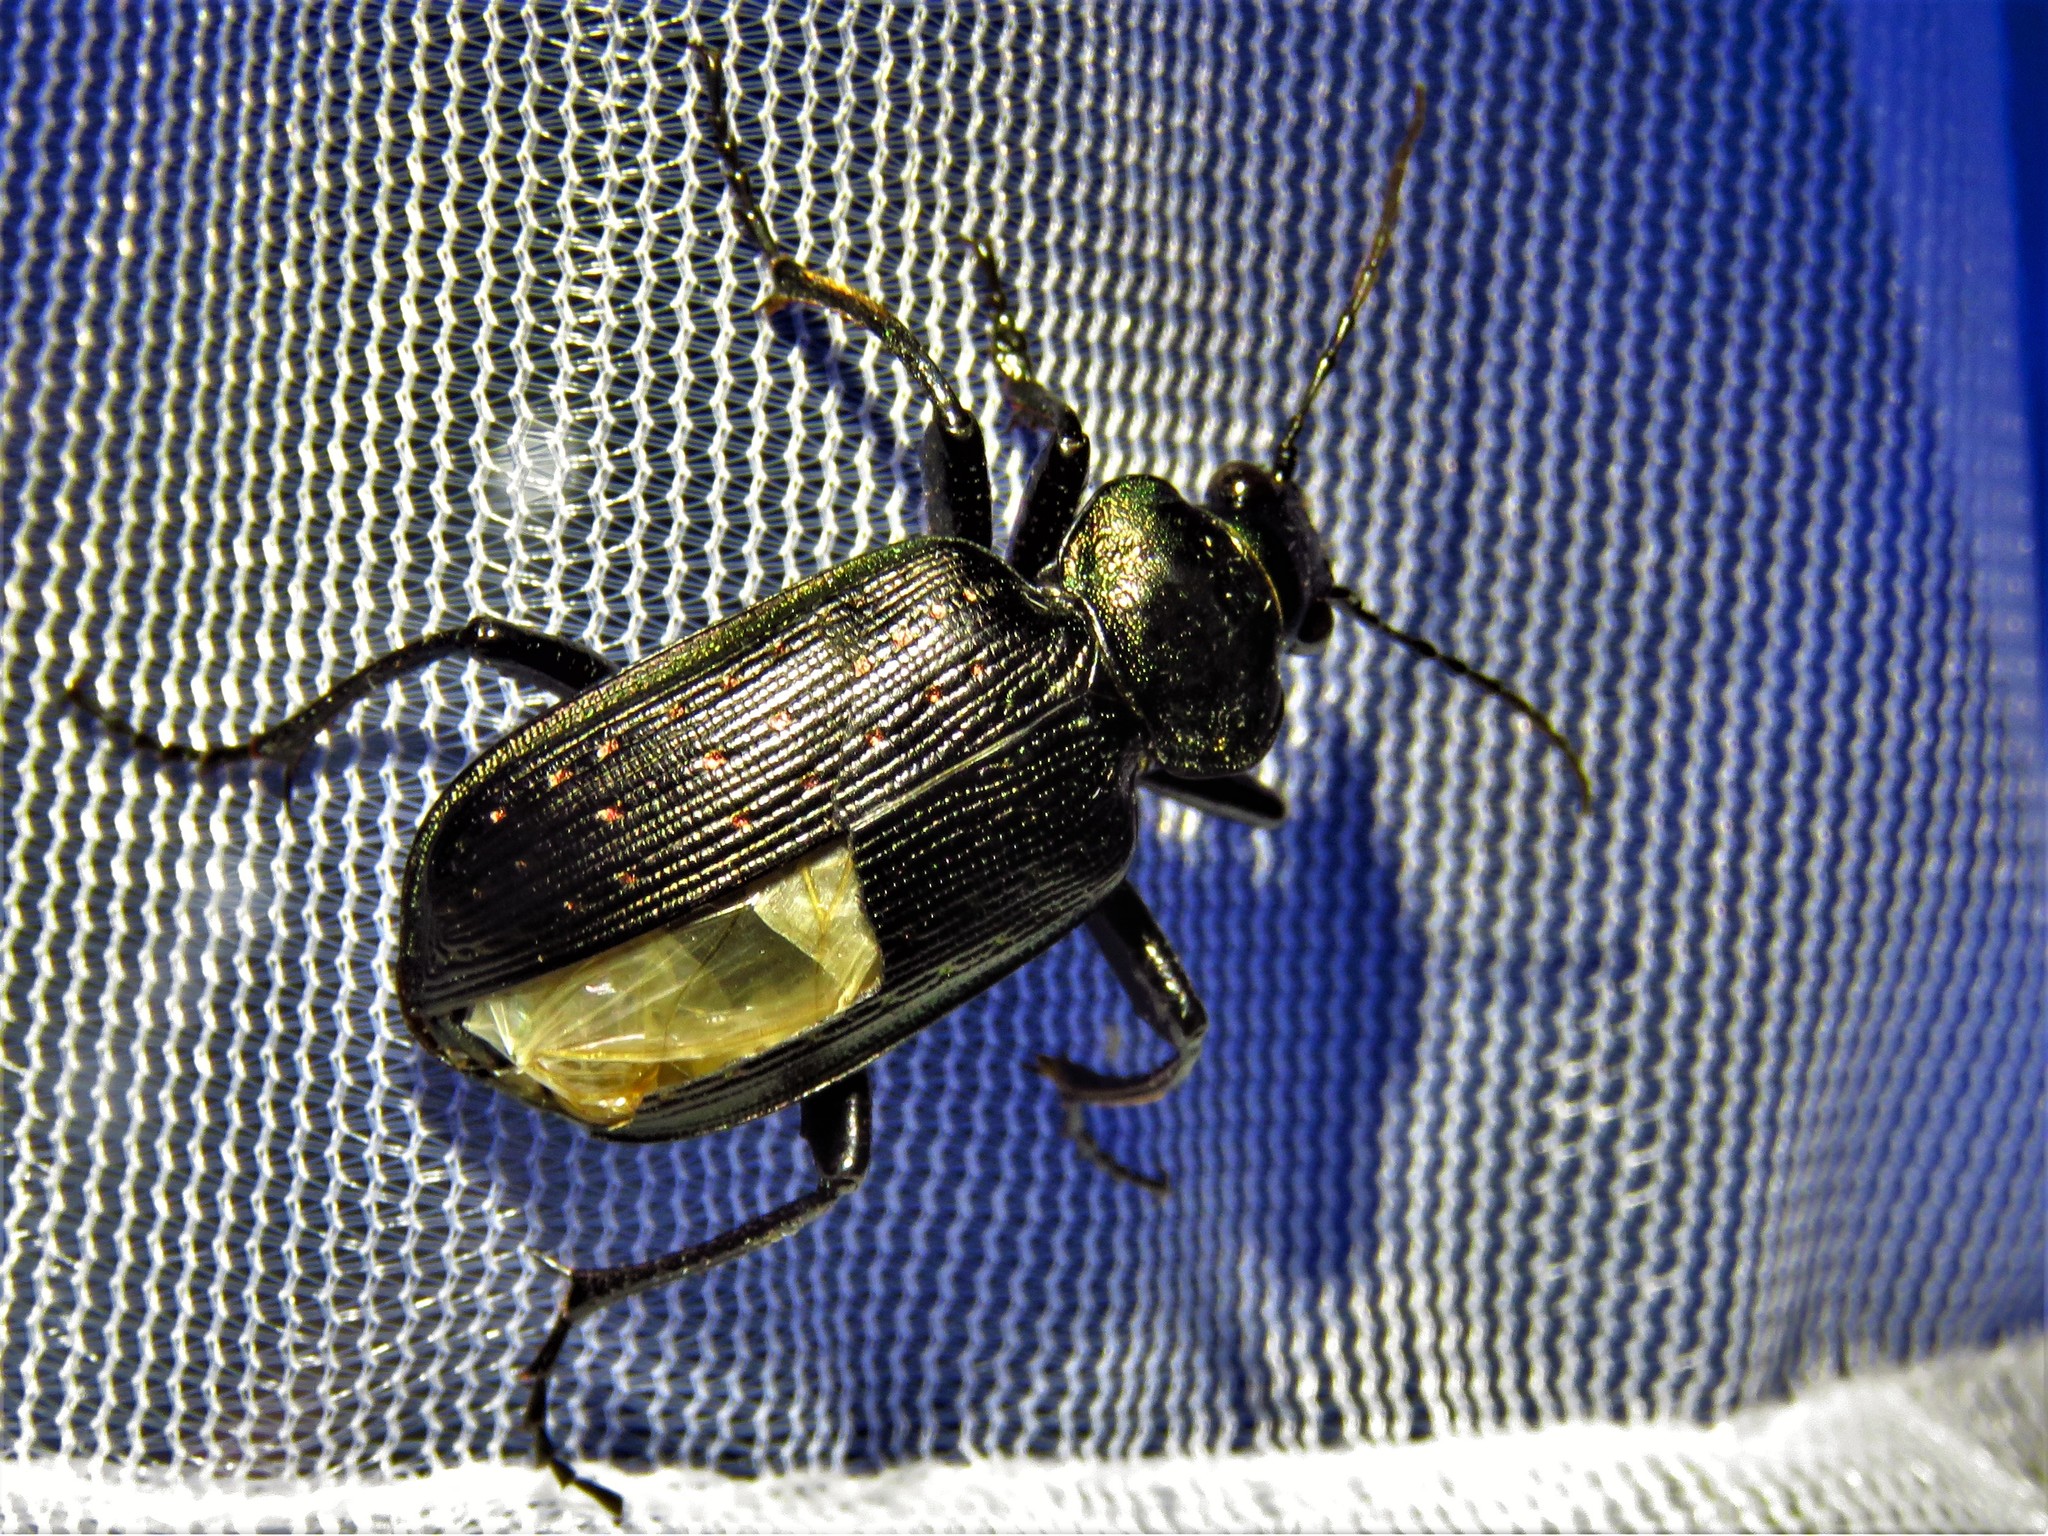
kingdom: Animalia
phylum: Arthropoda
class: Insecta
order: Coleoptera
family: Carabidae
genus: Calosoma
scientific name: Calosoma sayi
